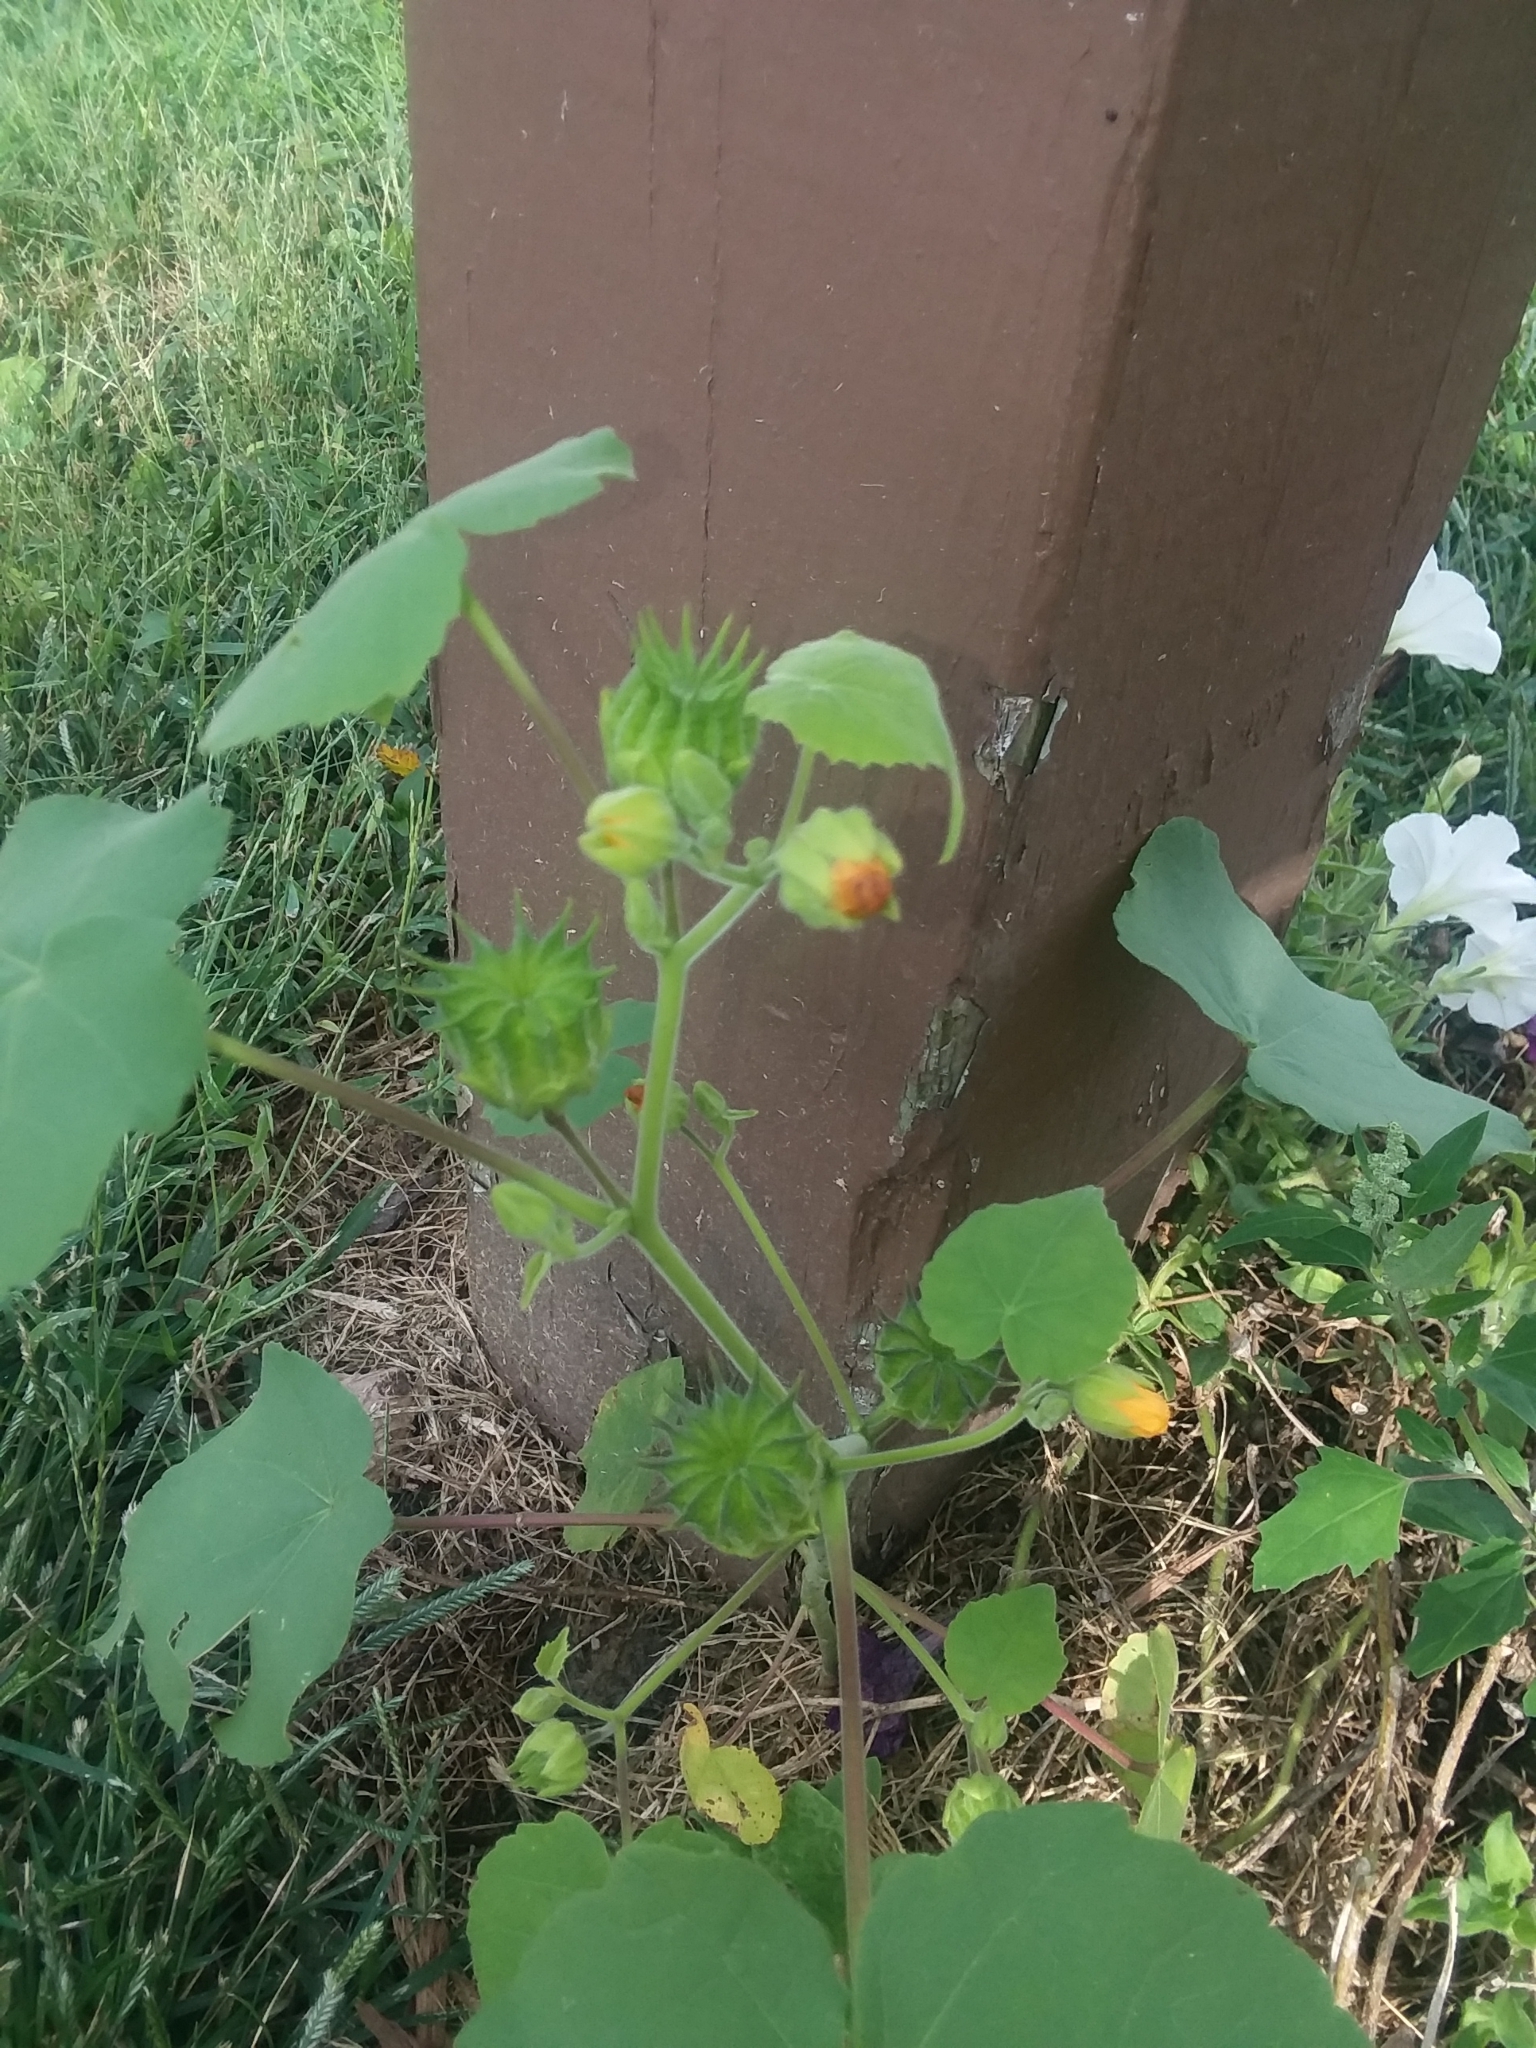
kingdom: Plantae
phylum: Tracheophyta
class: Magnoliopsida
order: Malvales
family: Malvaceae
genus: Abutilon
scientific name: Abutilon theophrasti
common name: Velvetleaf
